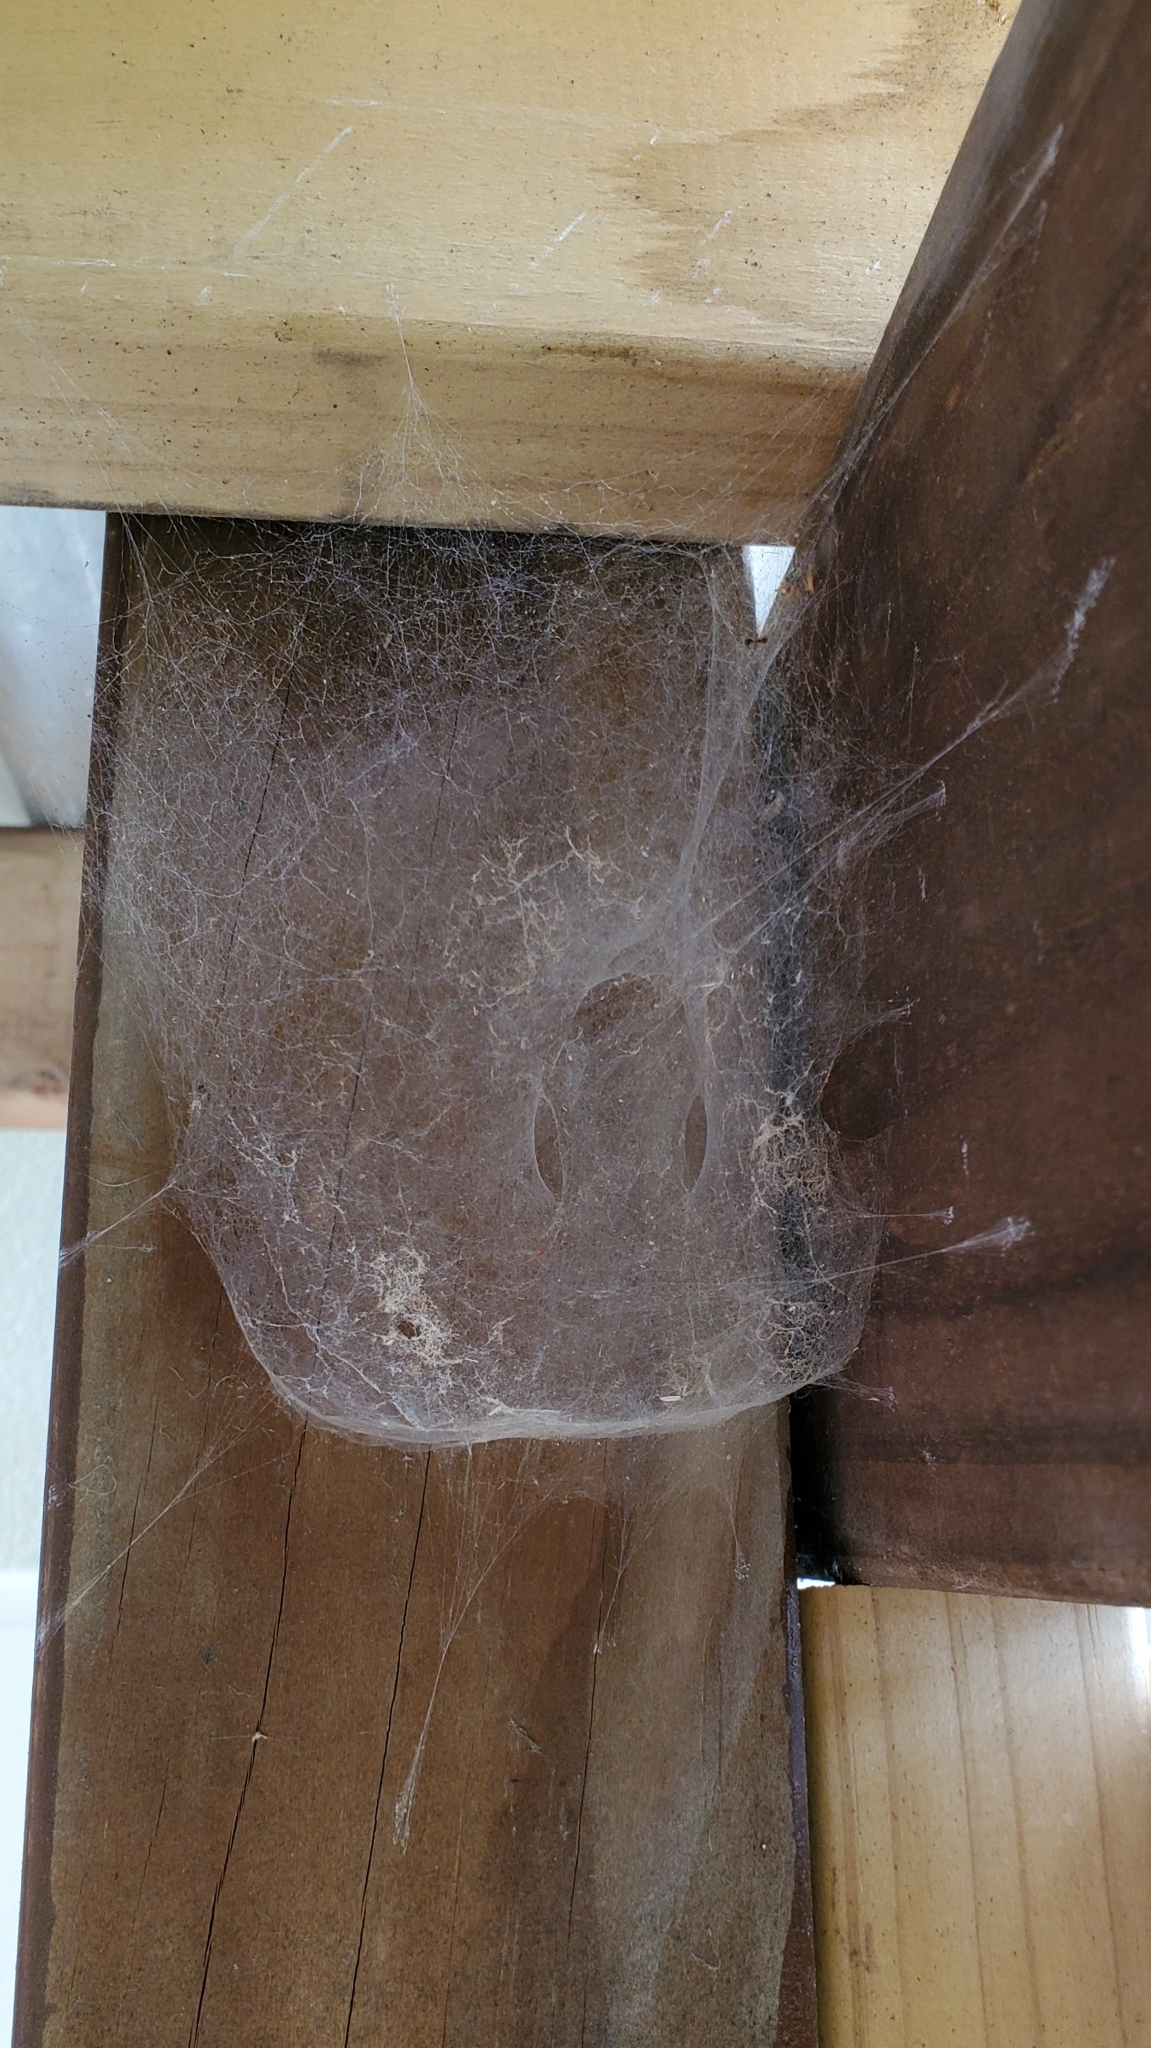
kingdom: Animalia
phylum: Arthropoda
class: Arachnida
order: Araneae
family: Stiphidiidae
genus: Stiphidion
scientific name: Stiphidion facetum
